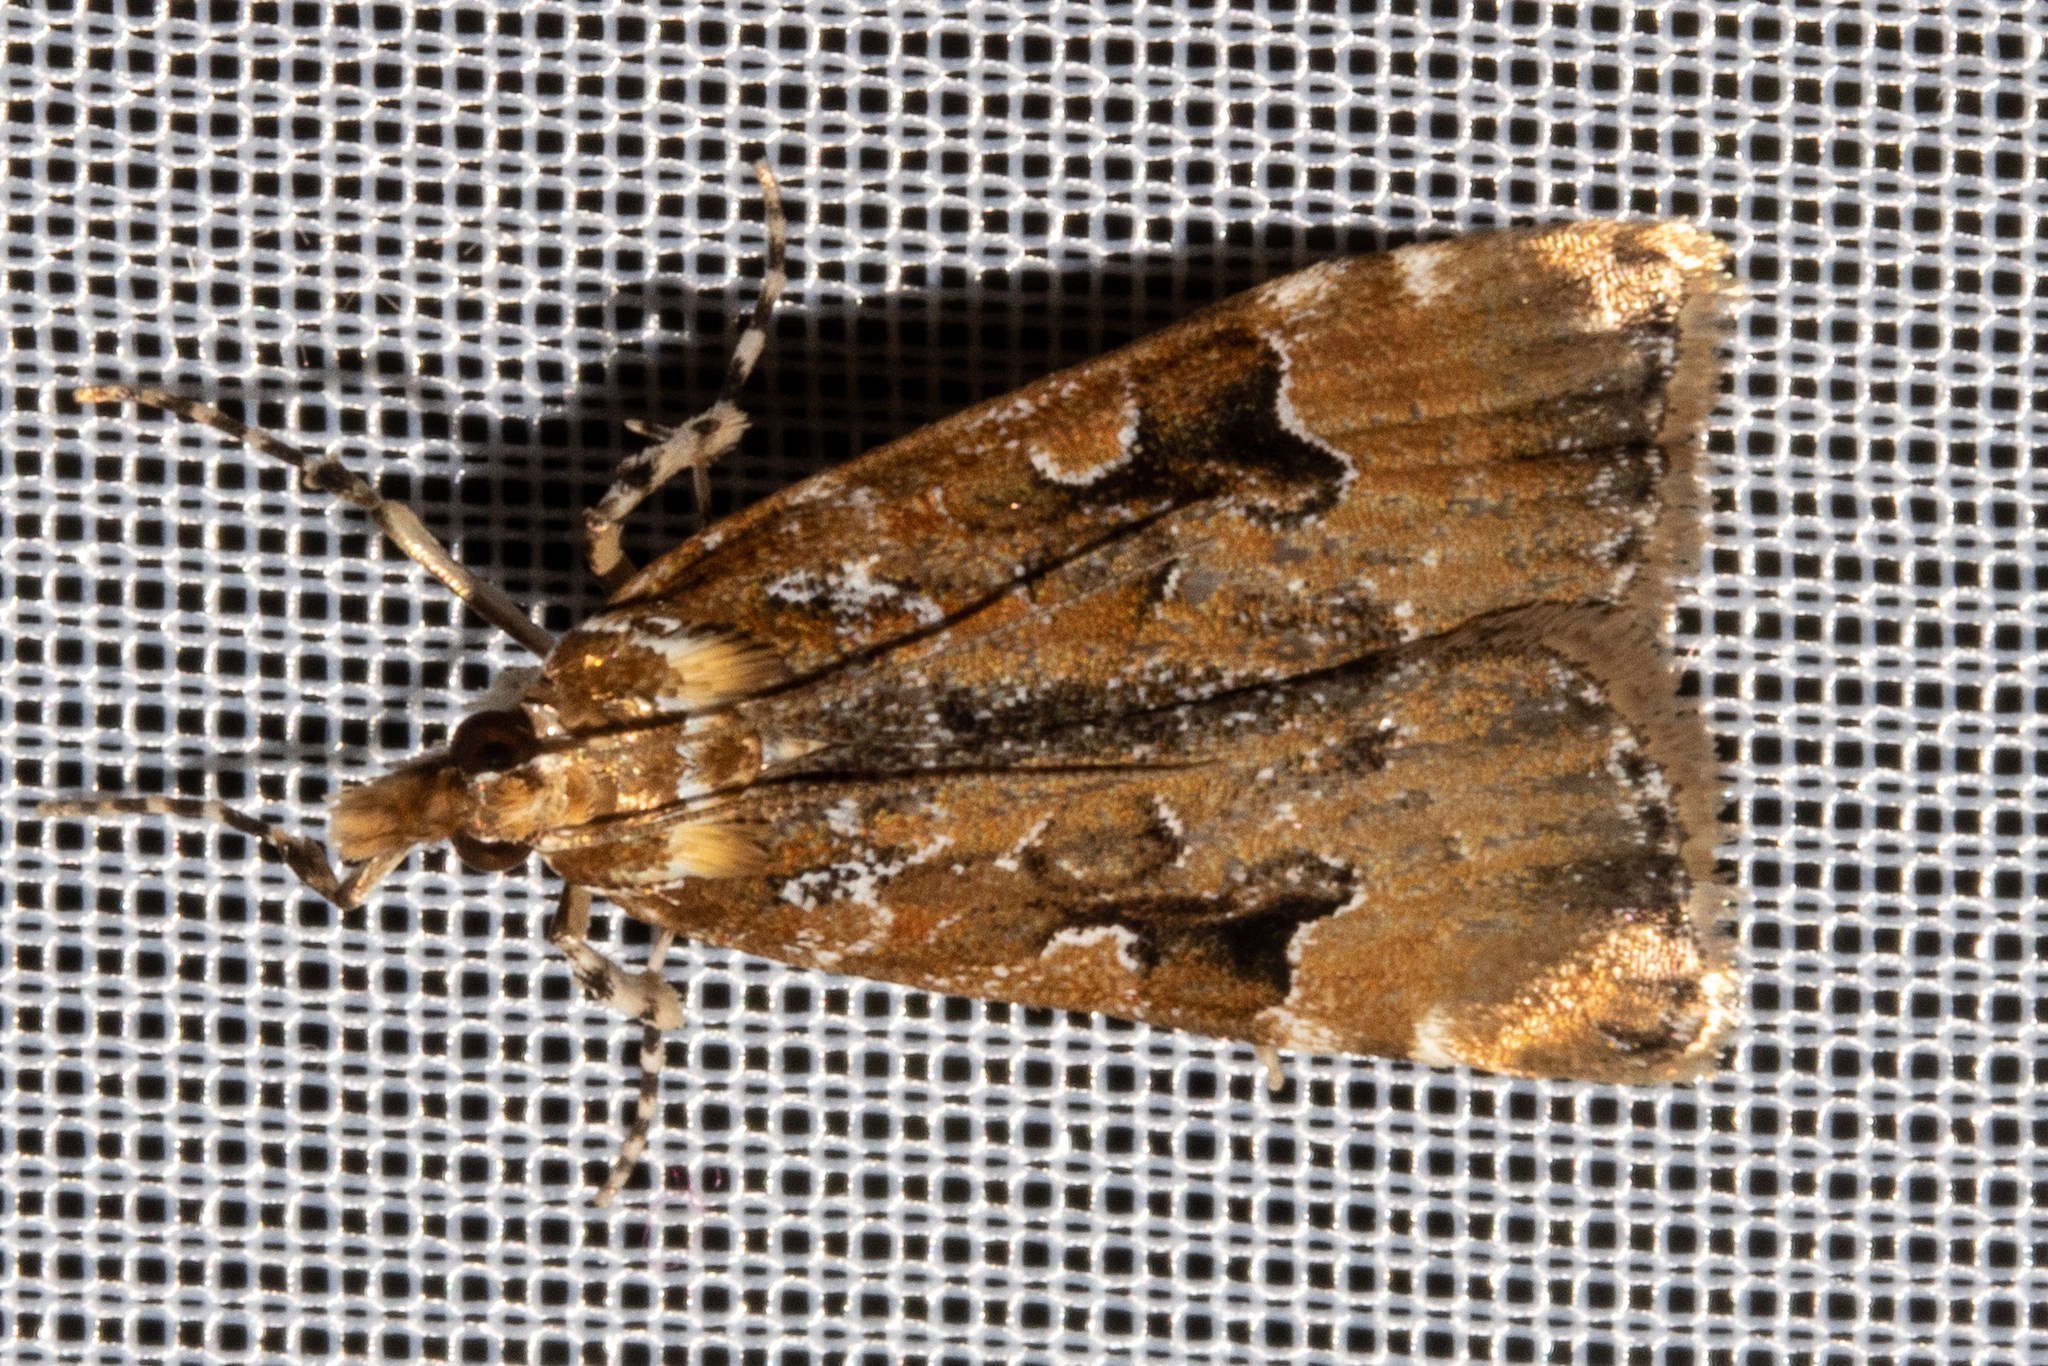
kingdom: Animalia
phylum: Arthropoda
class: Insecta
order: Lepidoptera
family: Crambidae
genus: Scoparia
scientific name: Scoparia ustimacula
